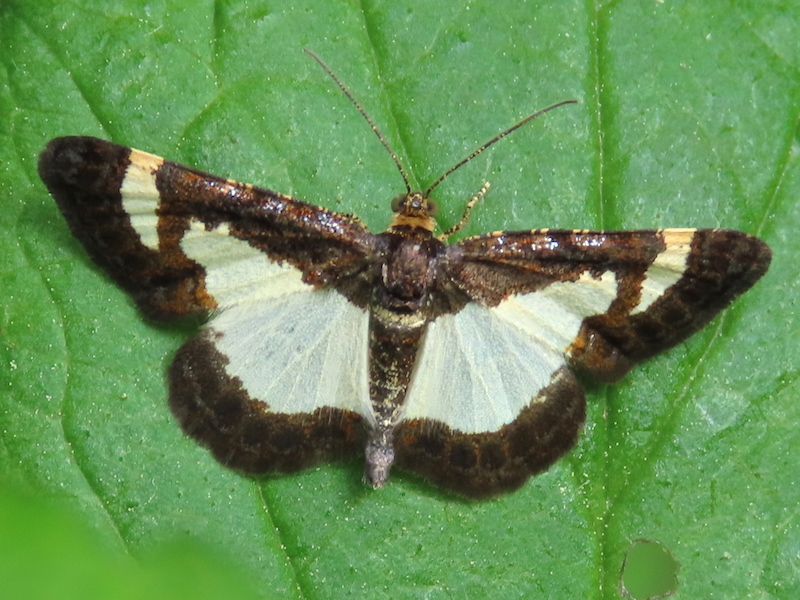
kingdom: Animalia
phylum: Arthropoda
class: Insecta
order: Lepidoptera
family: Geometridae
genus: Heliomata
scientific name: Heliomata cycladata
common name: Common spring moth
